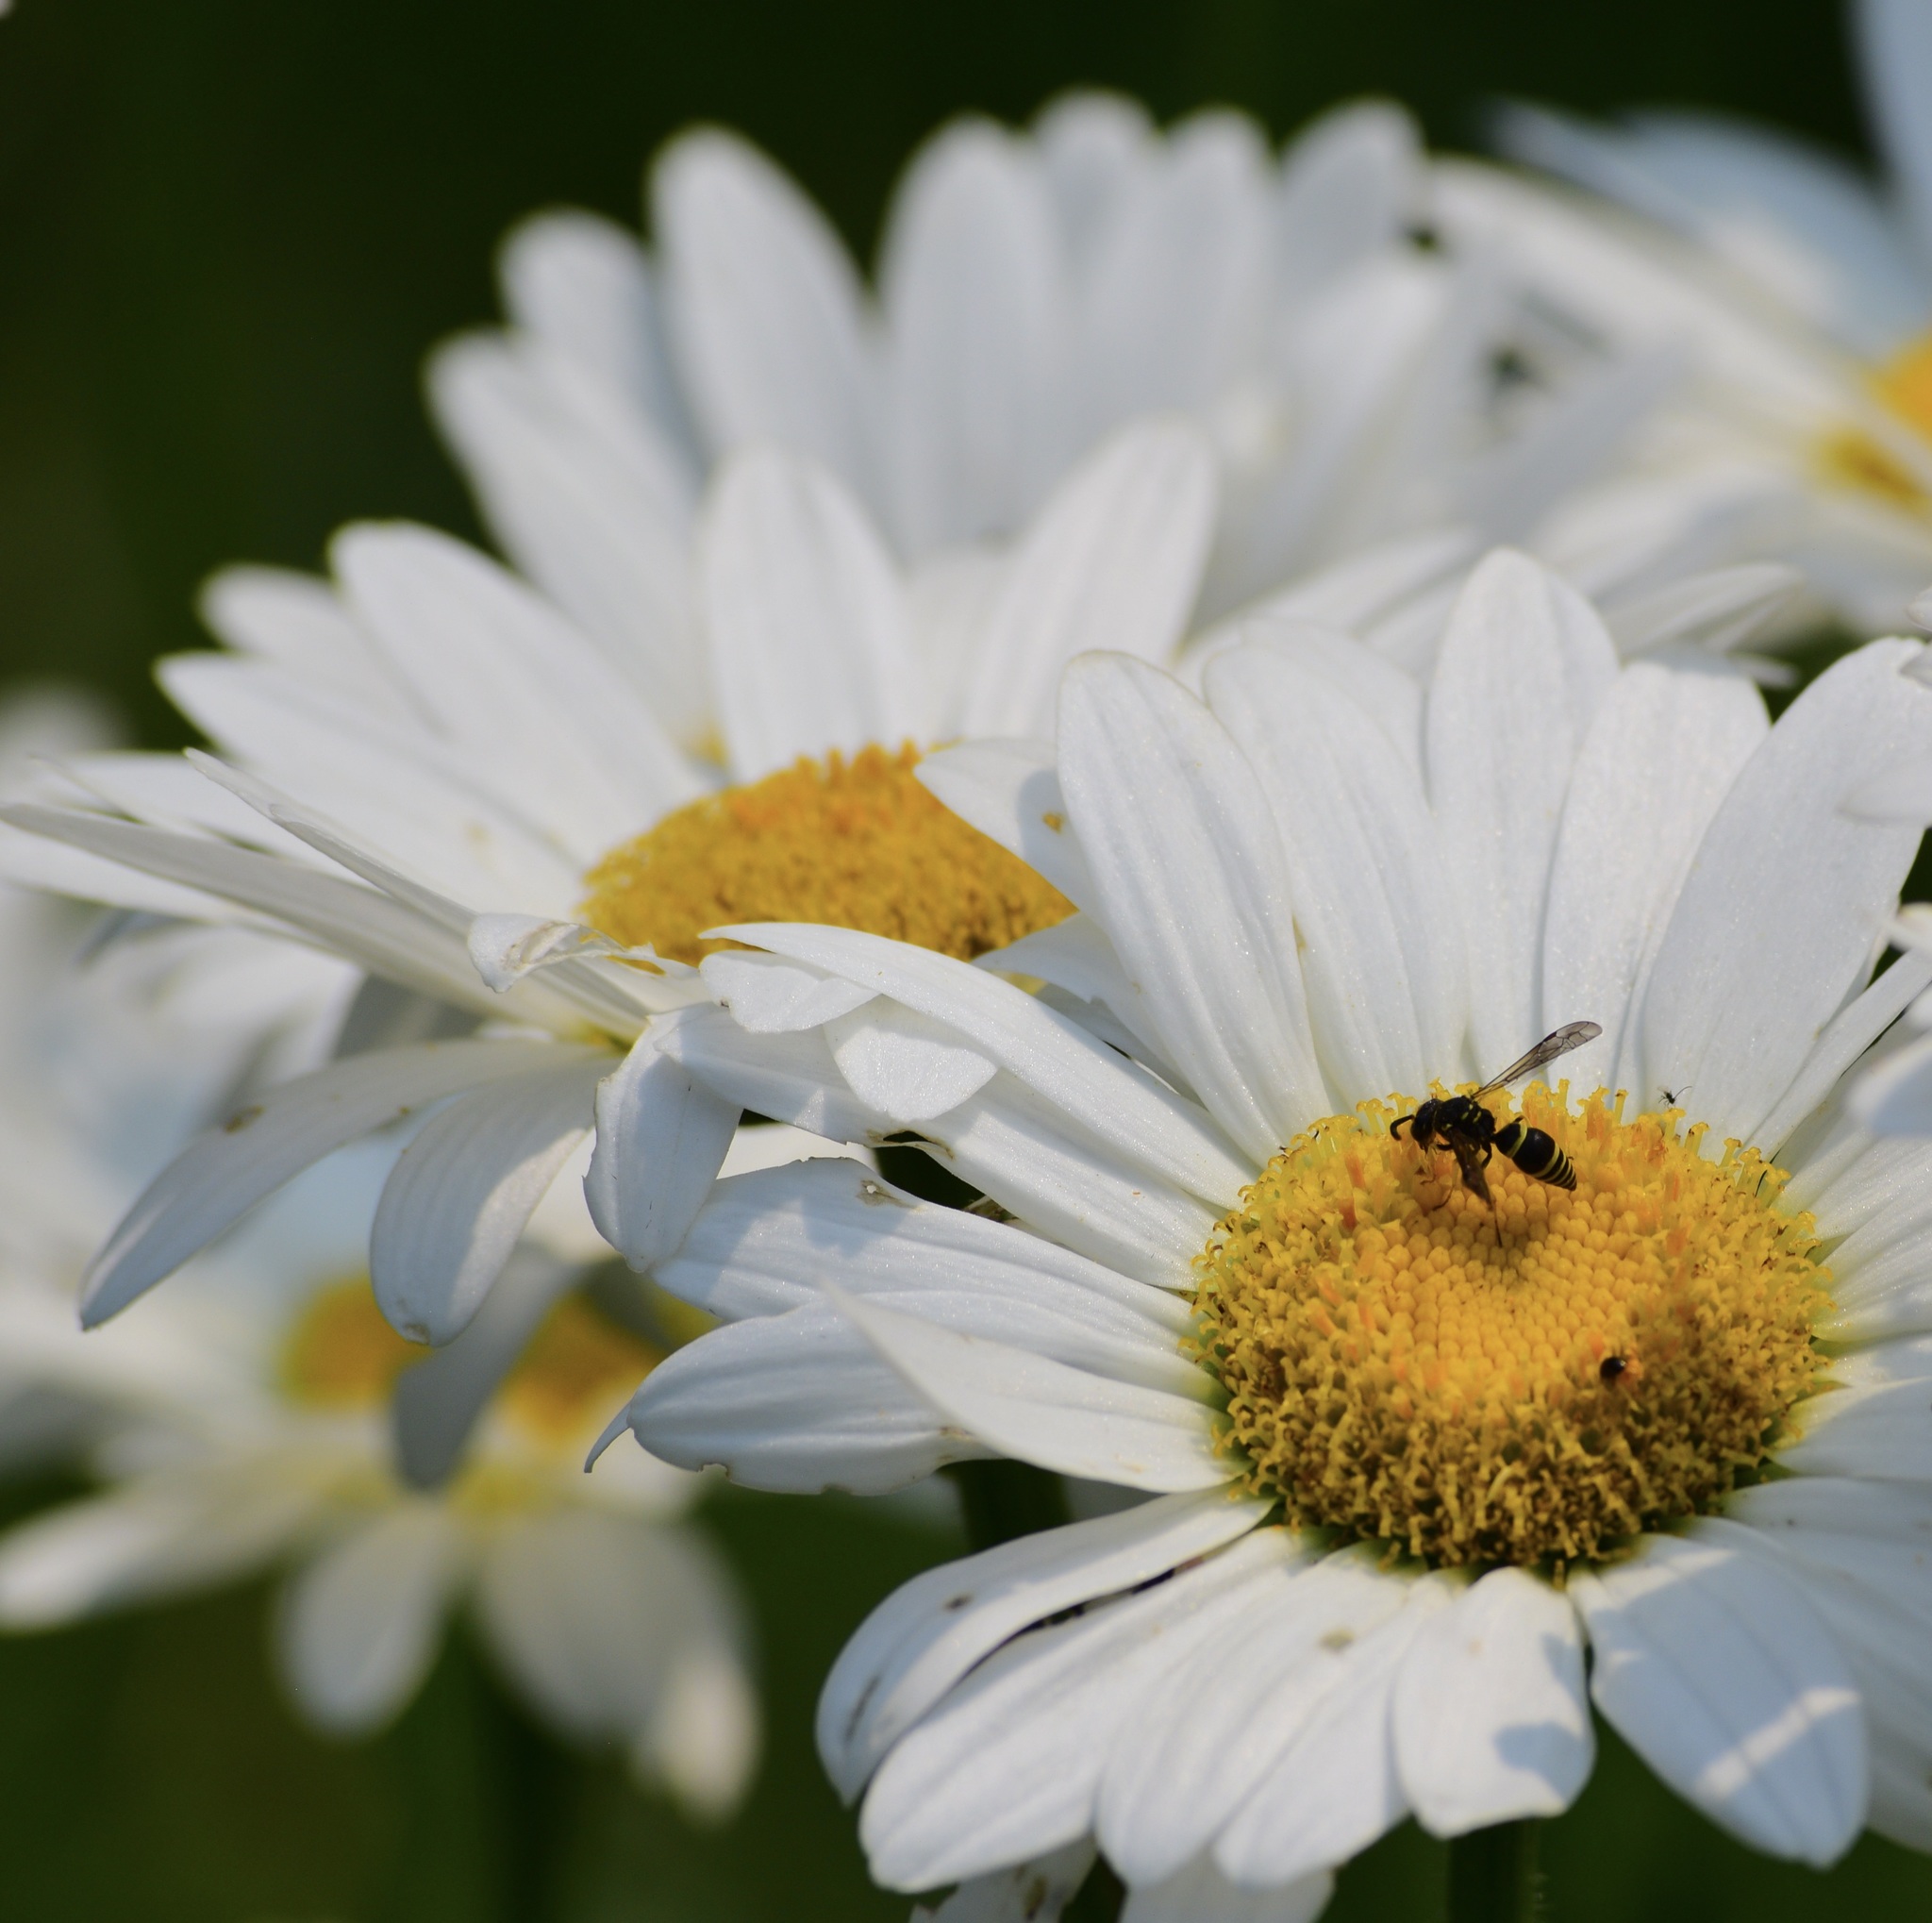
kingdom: Animalia
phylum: Arthropoda
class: Insecta
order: Hymenoptera
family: Vespidae
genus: Ancistrocerus
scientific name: Ancistrocerus
